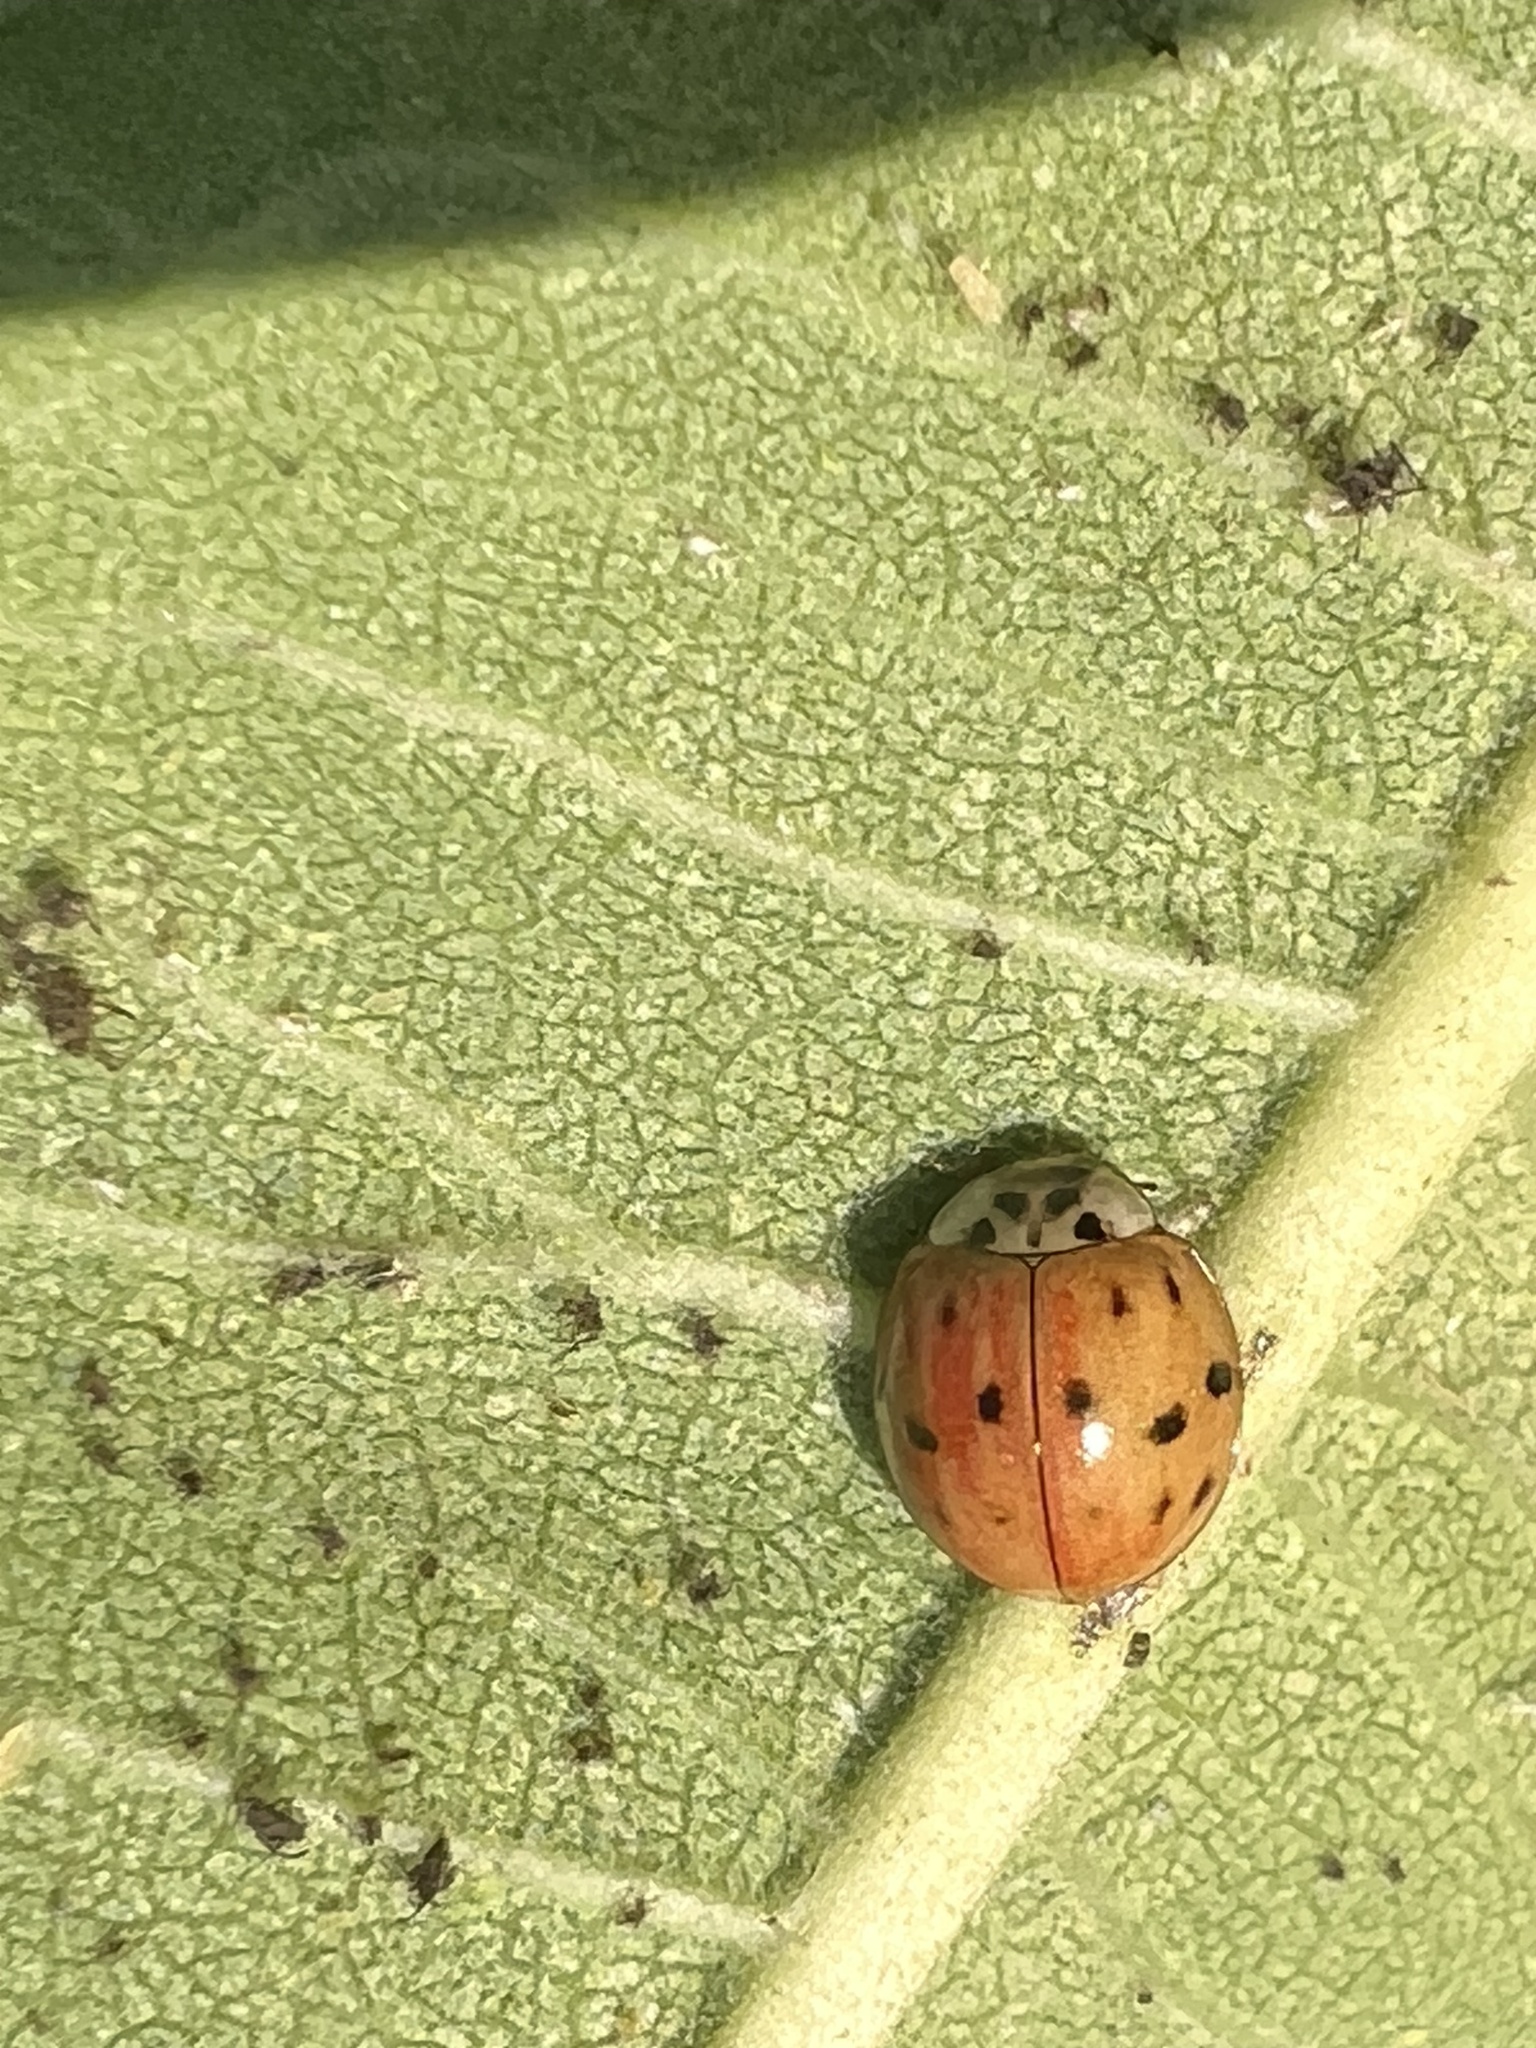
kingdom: Animalia
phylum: Arthropoda
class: Insecta
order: Coleoptera
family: Coccinellidae
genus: Harmonia
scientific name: Harmonia axyridis
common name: Harlequin ladybird
